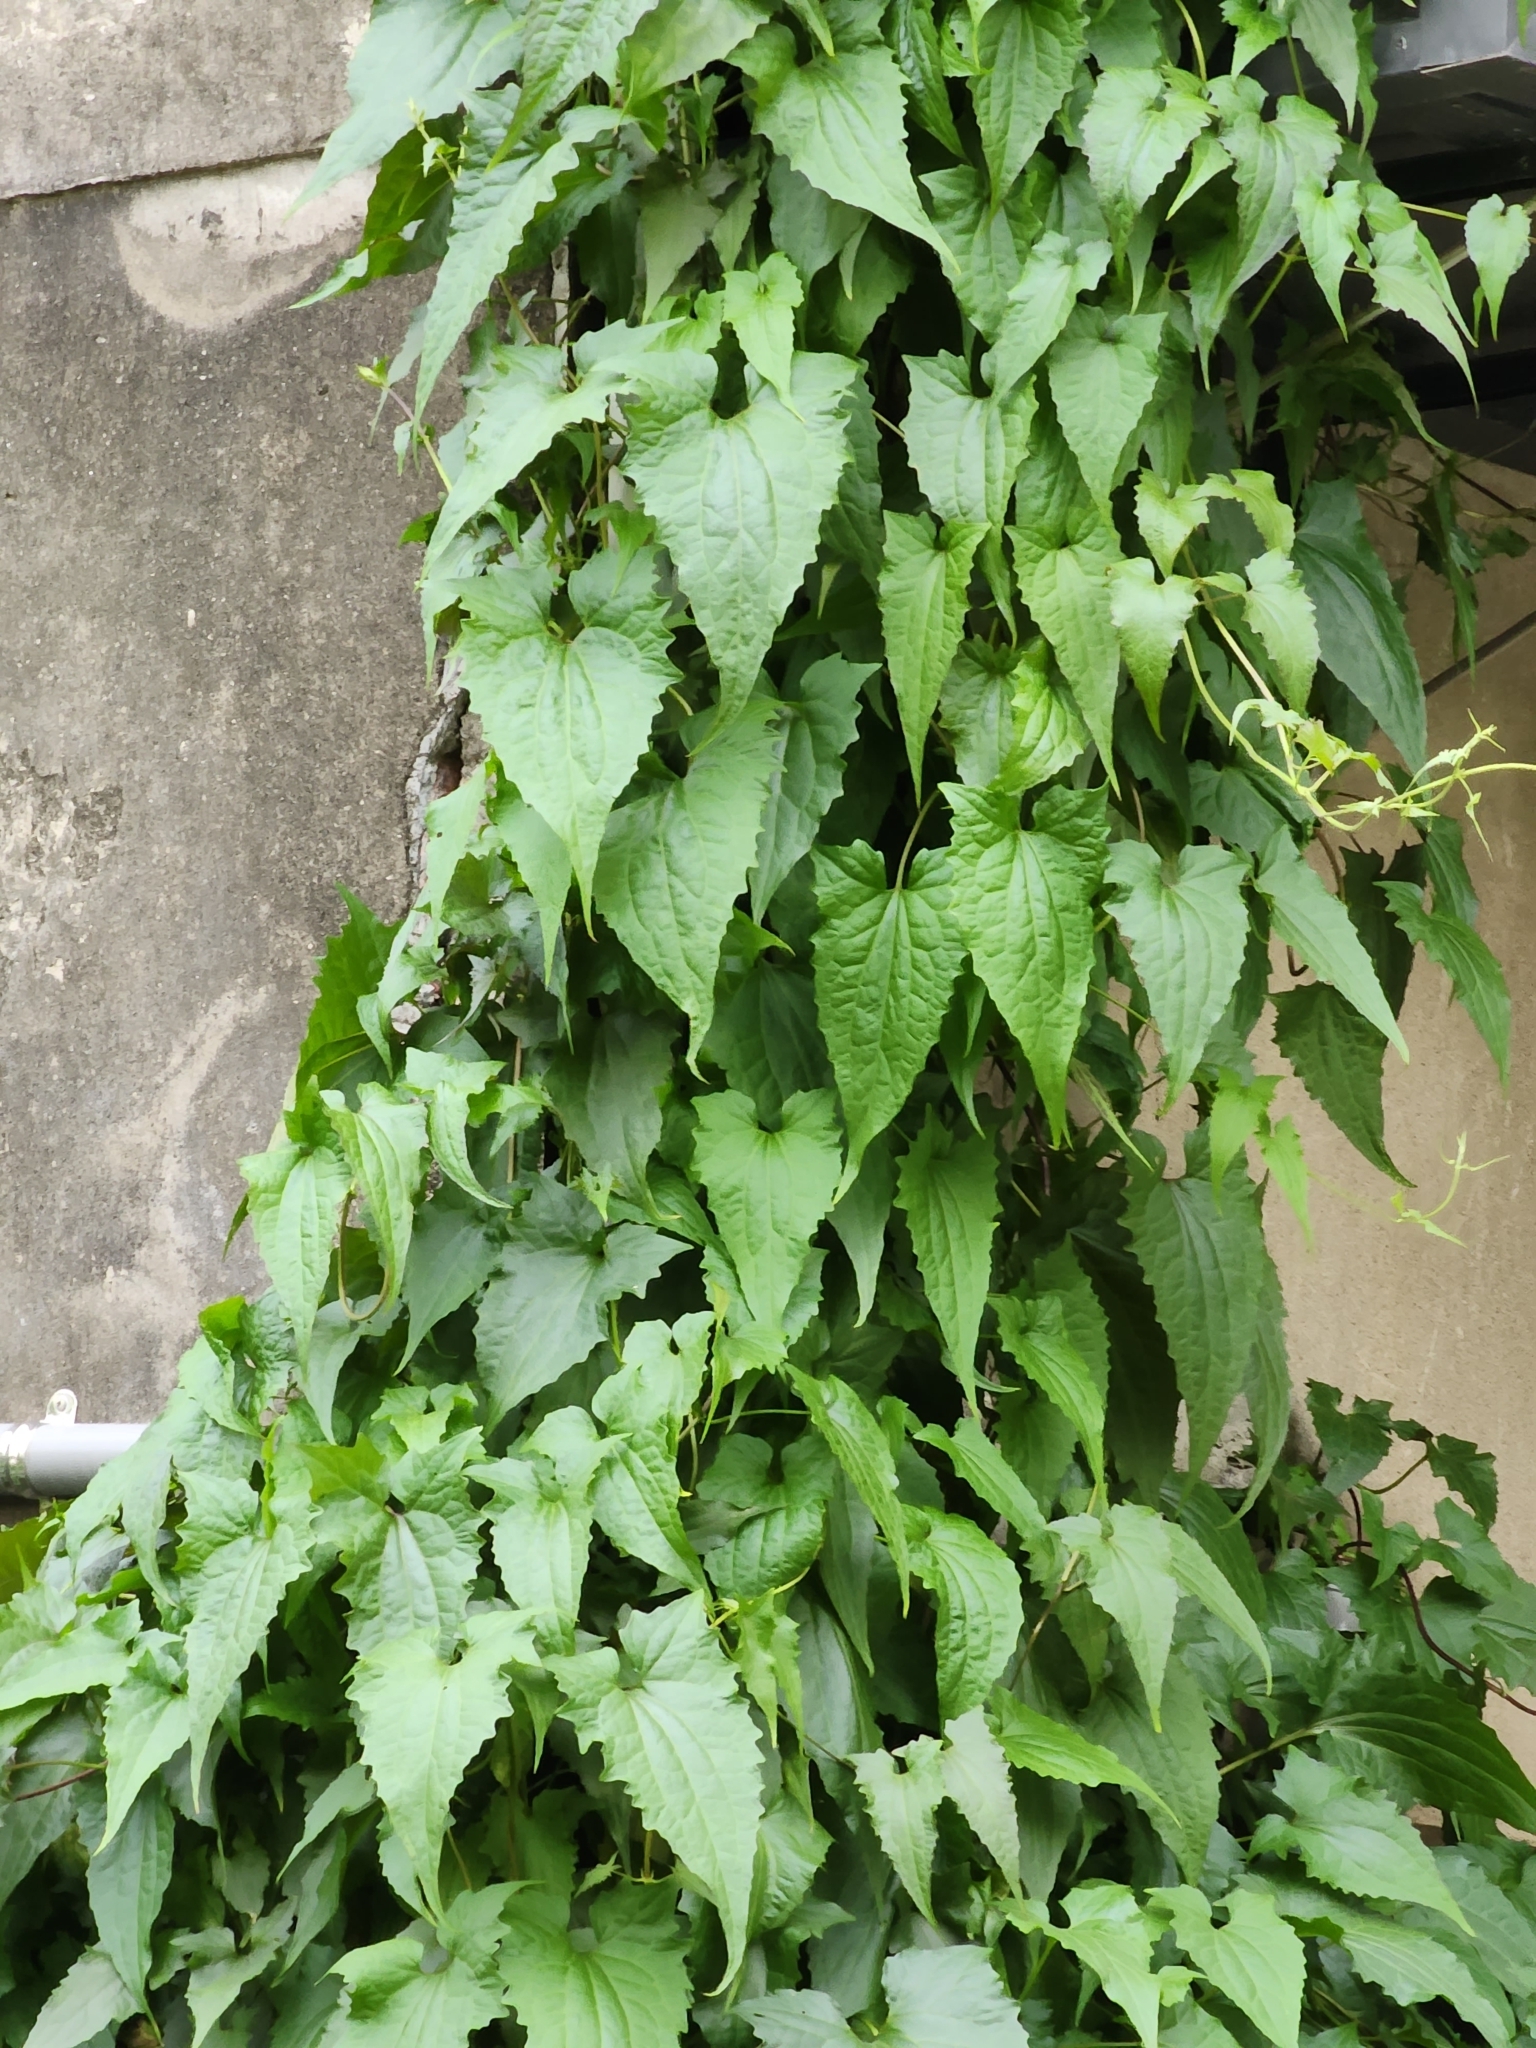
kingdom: Plantae
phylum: Tracheophyta
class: Magnoliopsida
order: Asterales
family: Asteraceae
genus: Mikania
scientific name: Mikania micrantha
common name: Mile-a-minute
